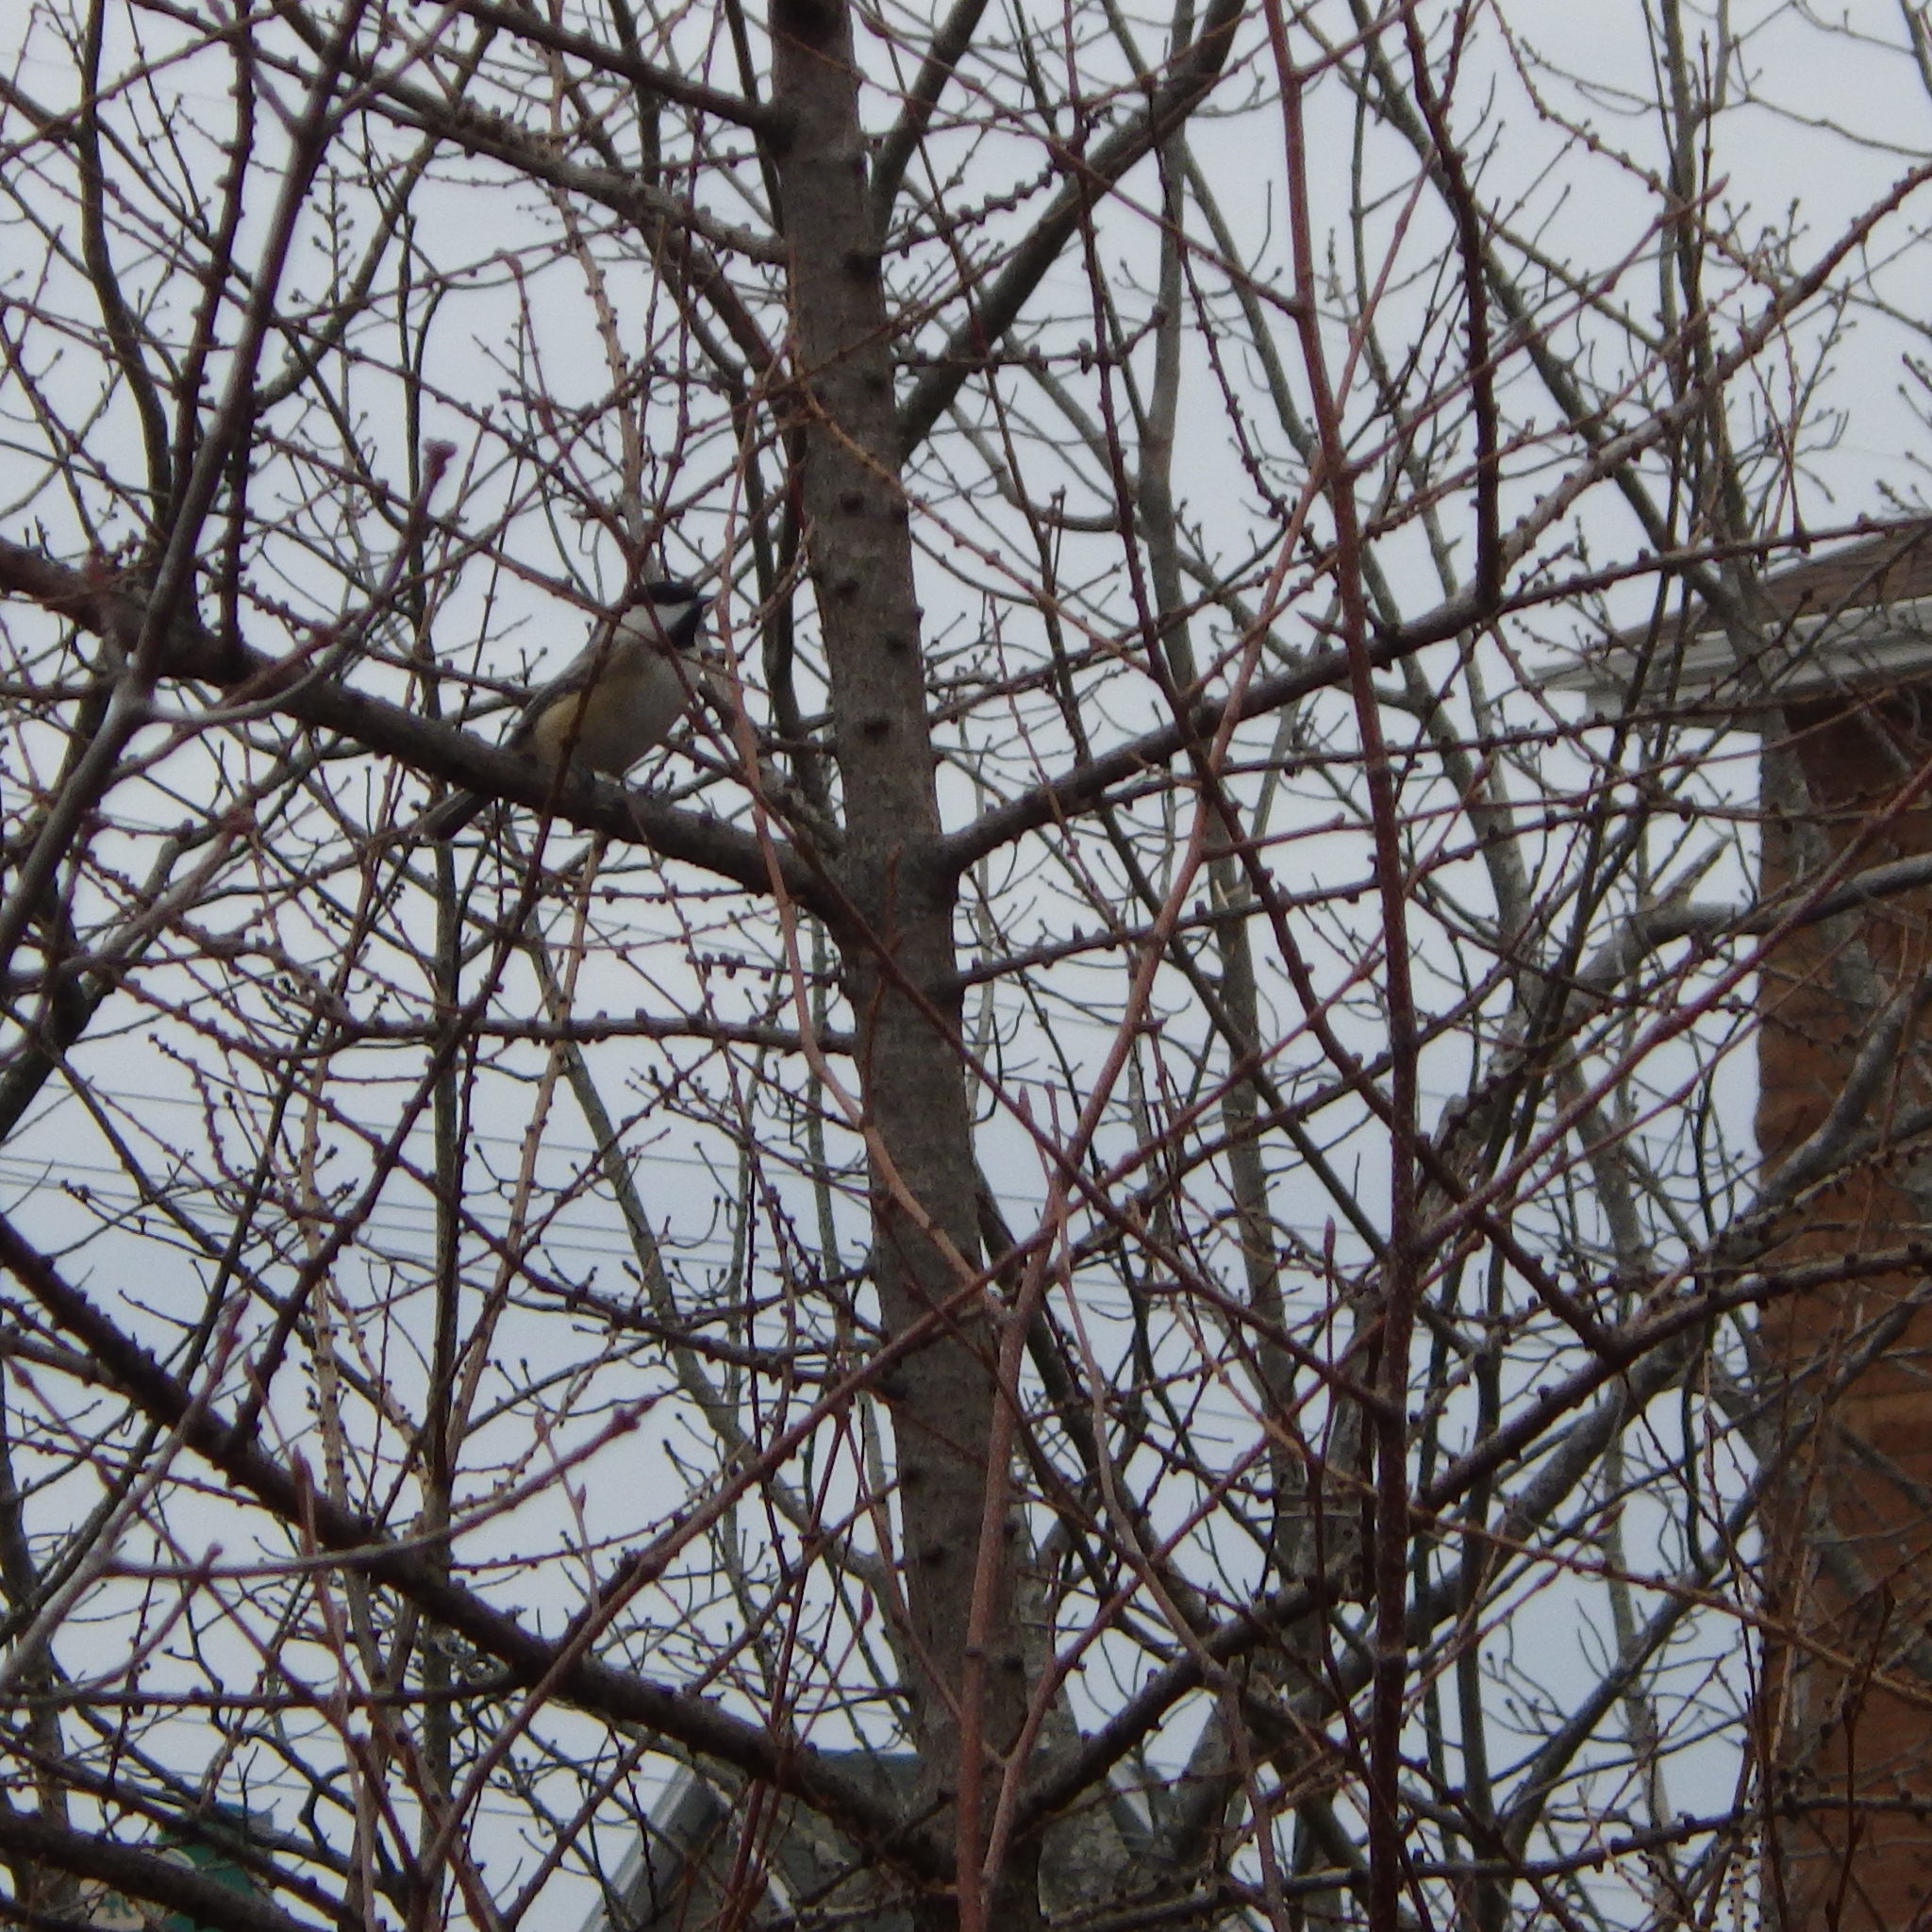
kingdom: Animalia
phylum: Chordata
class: Aves
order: Passeriformes
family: Paridae
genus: Poecile
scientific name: Poecile atricapillus
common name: Black-capped chickadee
